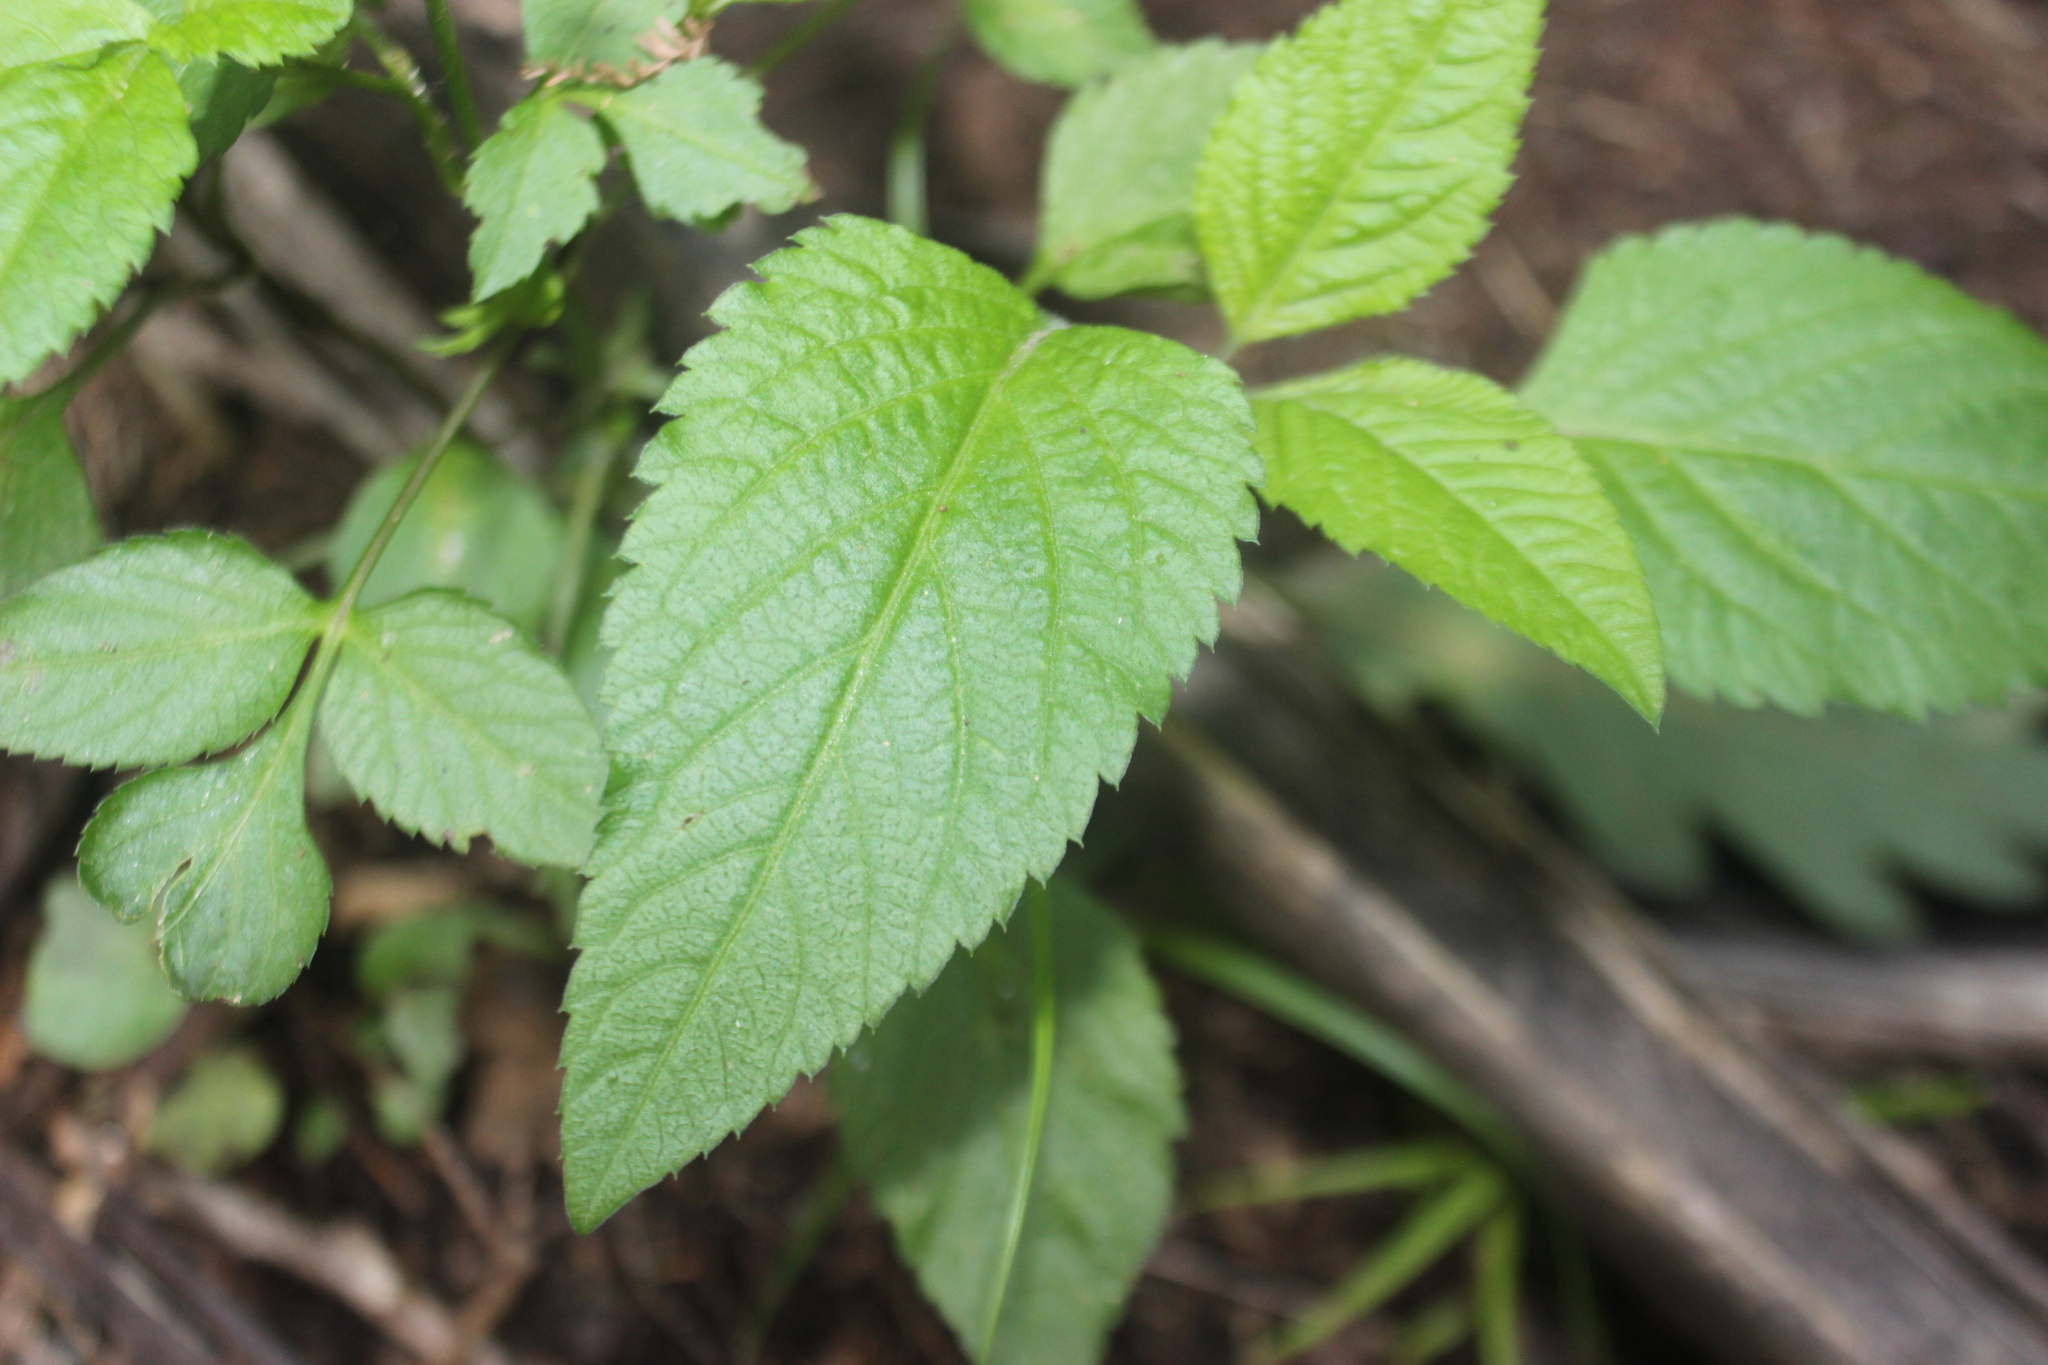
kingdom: Plantae
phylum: Tracheophyta
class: Magnoliopsida
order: Asterales
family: Asteraceae
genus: Bidens
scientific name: Bidens pilosa
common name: Black-jack
